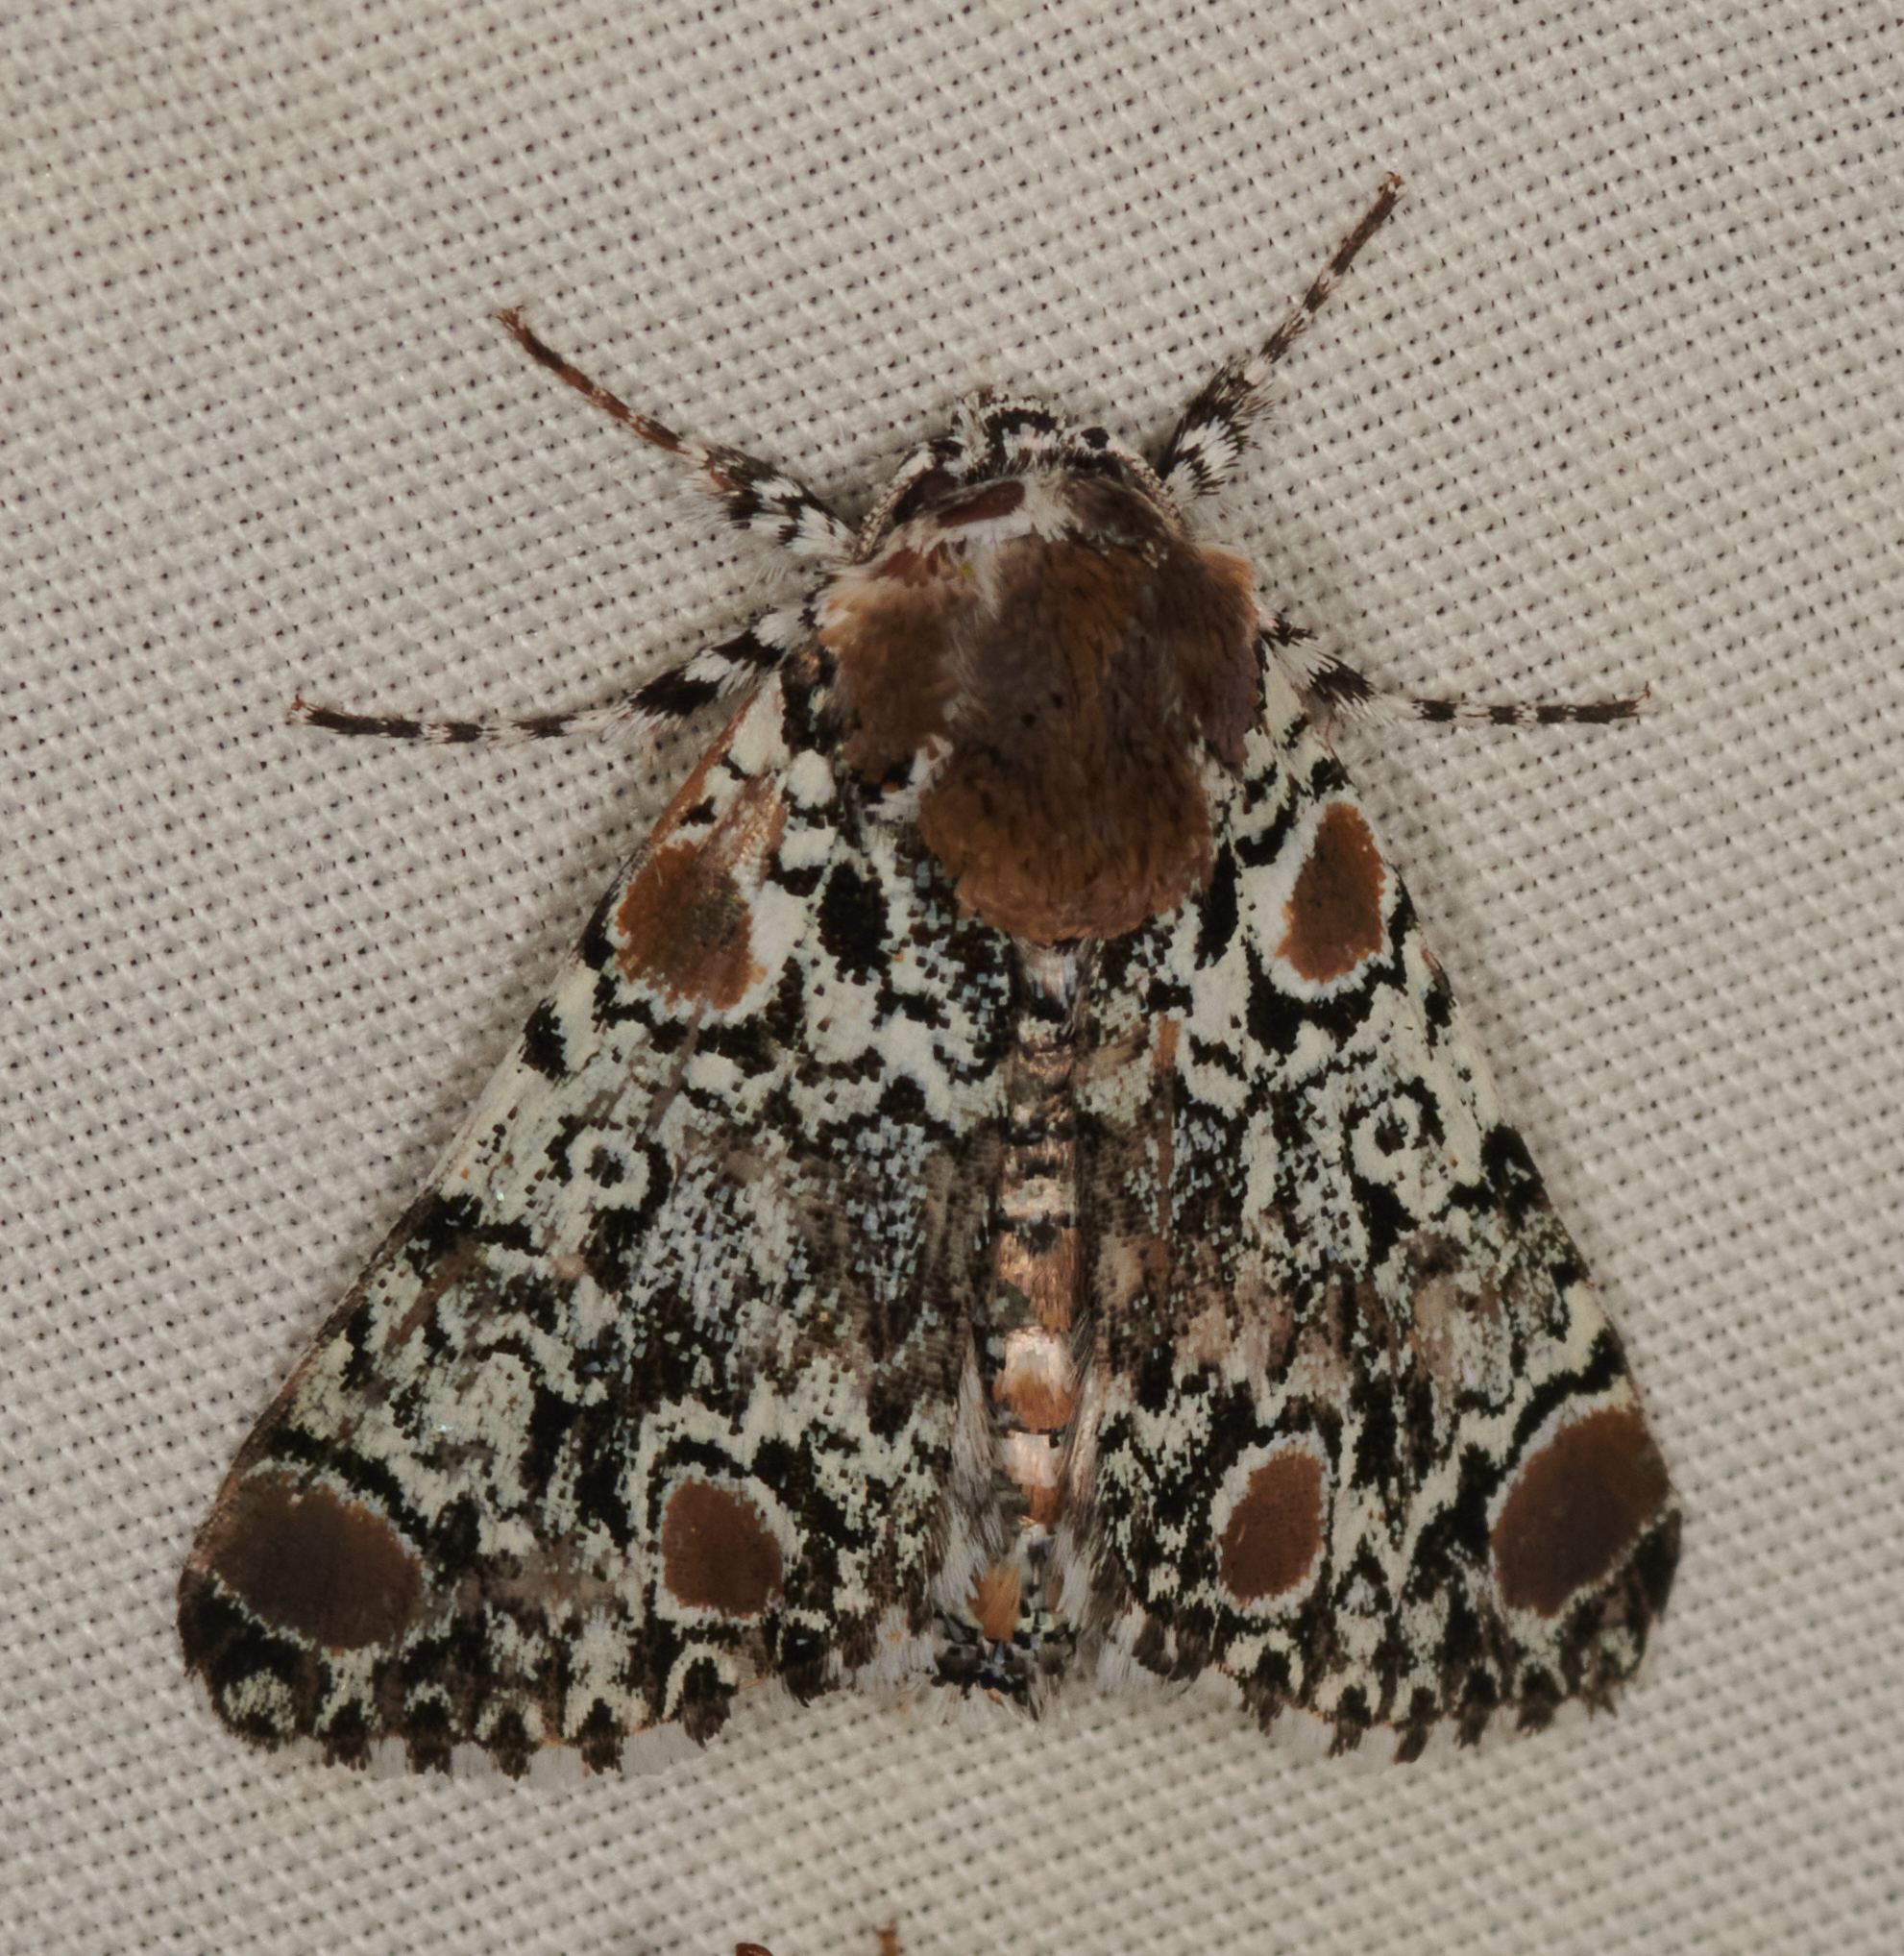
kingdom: Animalia
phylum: Arthropoda
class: Insecta
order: Lepidoptera
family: Noctuidae
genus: Harrisimemna
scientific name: Harrisimemna trisignata
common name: Harris threespot
